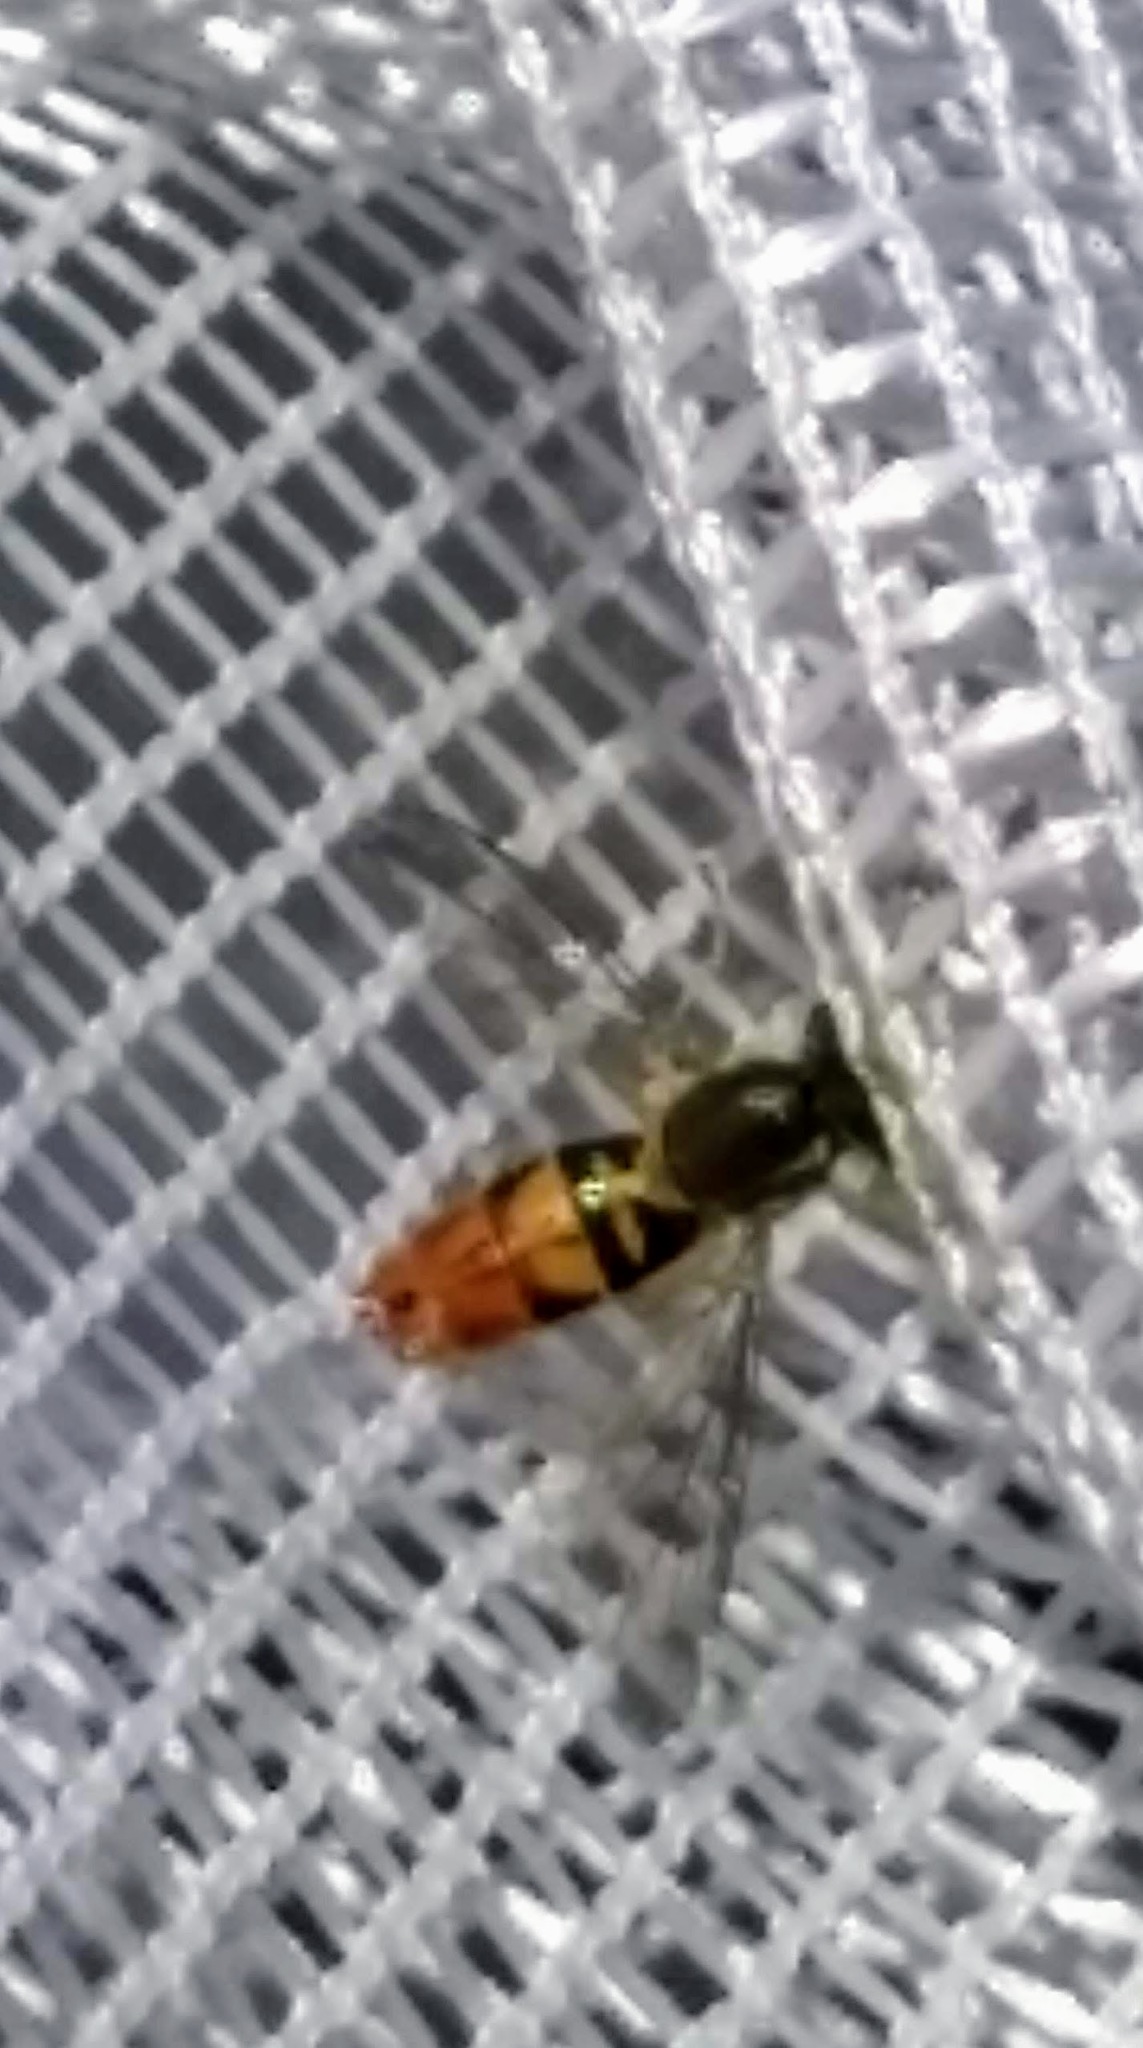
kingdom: Animalia
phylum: Arthropoda
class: Insecta
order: Diptera
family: Syrphidae
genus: Toxomerus
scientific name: Toxomerus marginatus
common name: Syrphid fly
